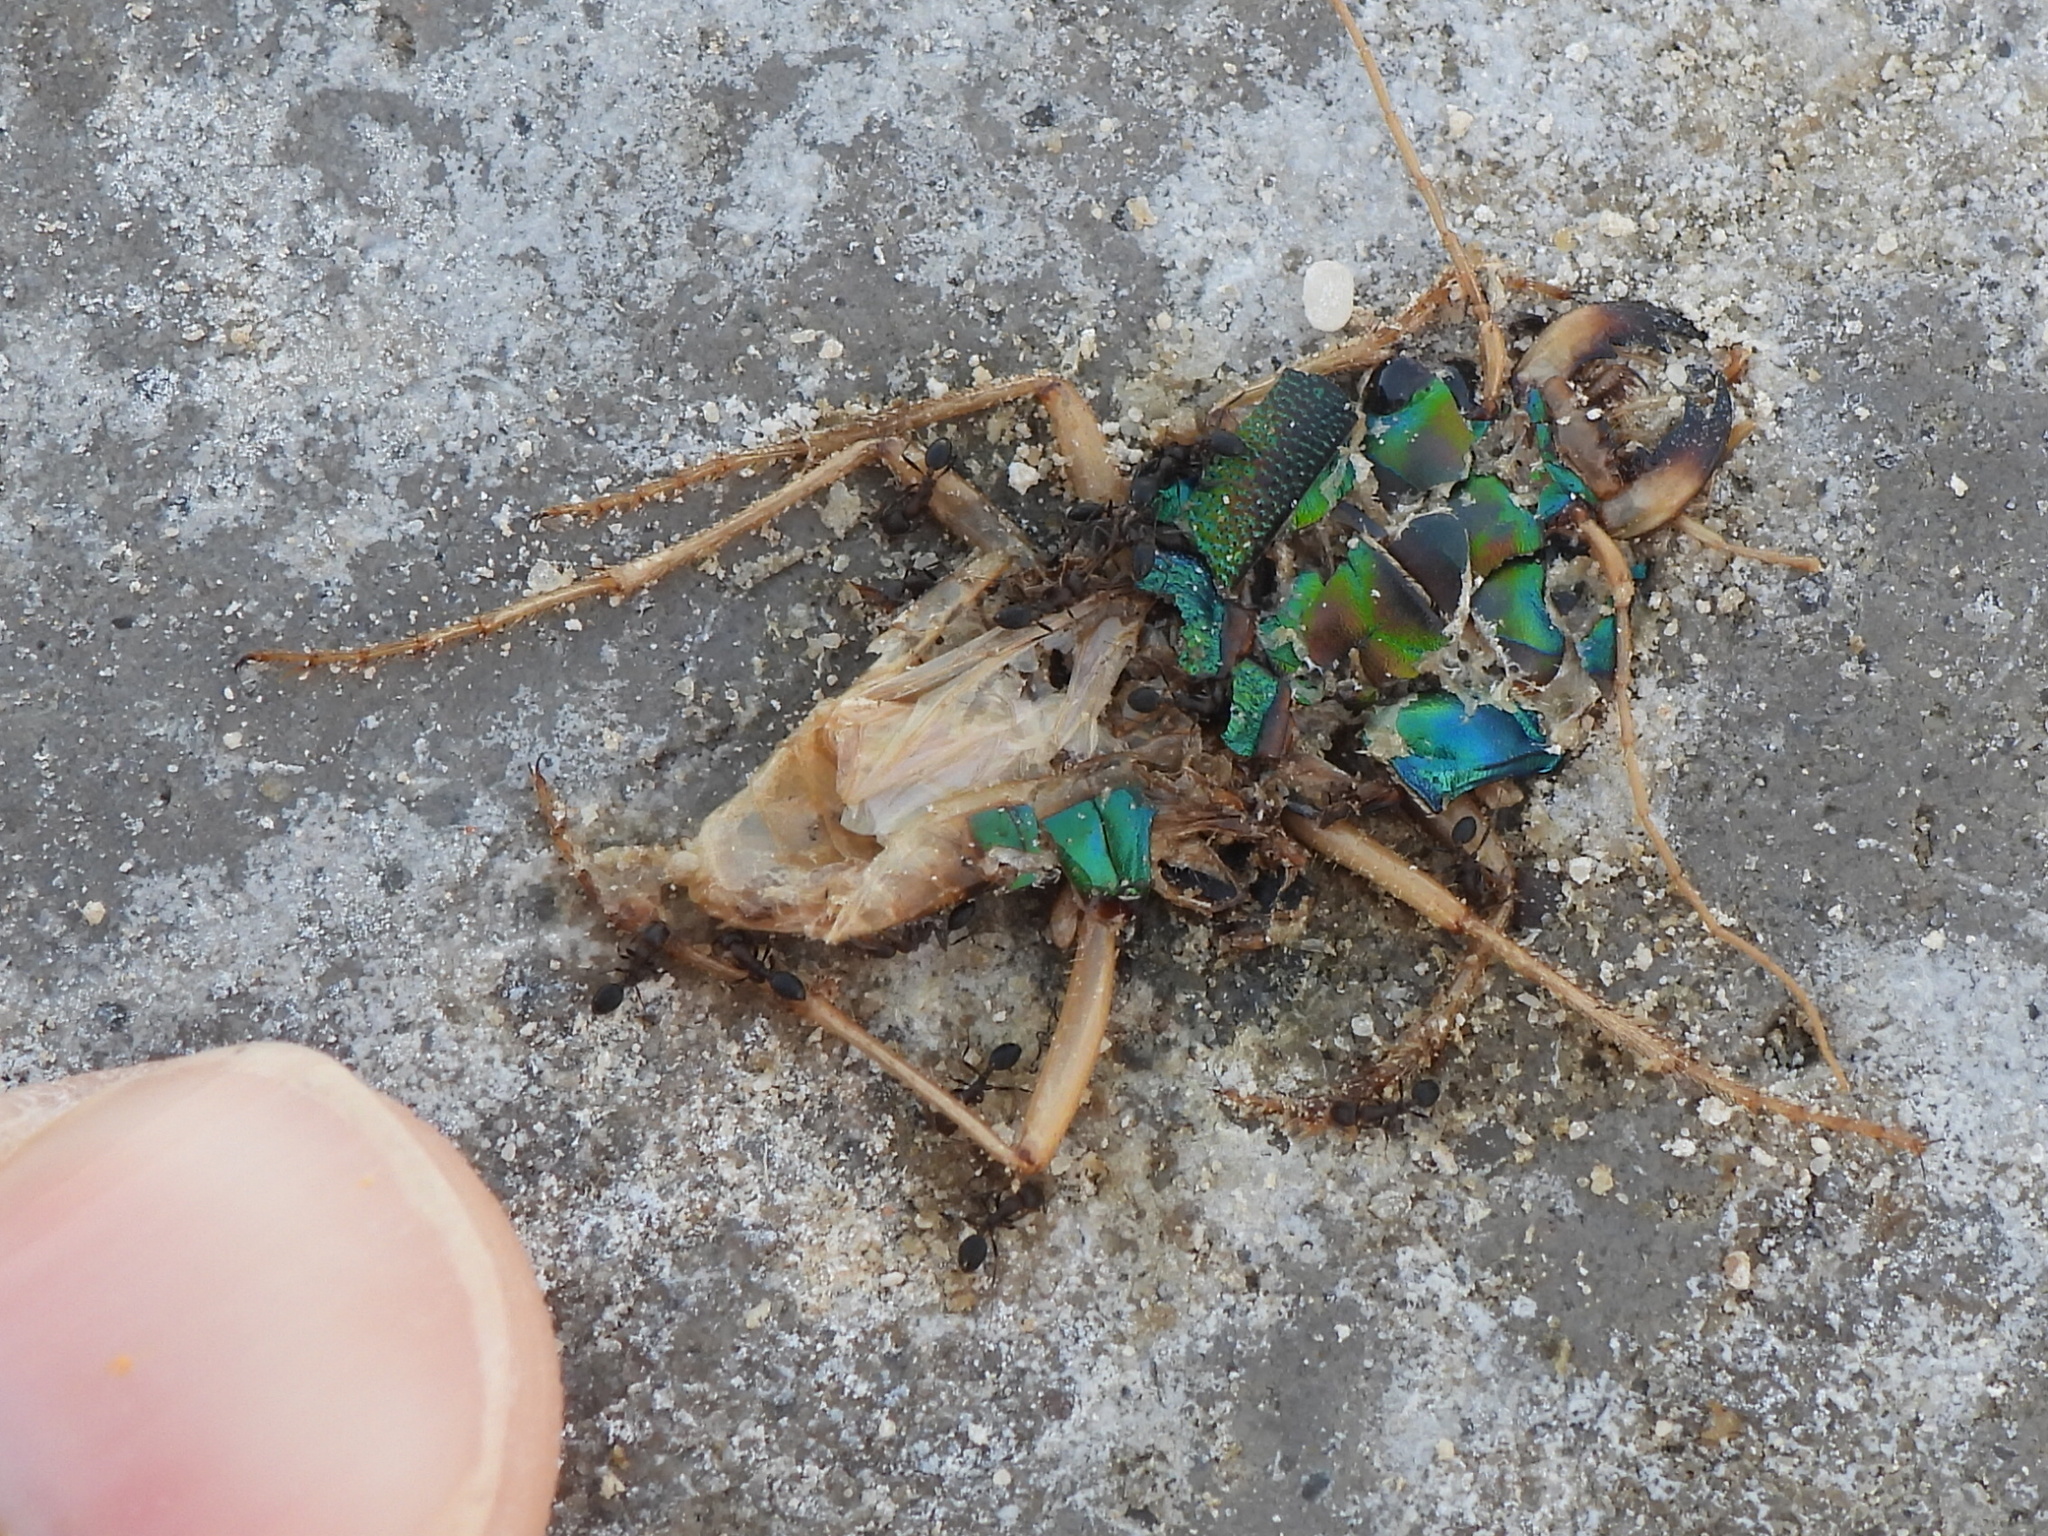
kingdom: Animalia
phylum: Arthropoda
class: Insecta
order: Coleoptera
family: Carabidae
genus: Grammognatha
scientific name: Grammognatha euphratica
